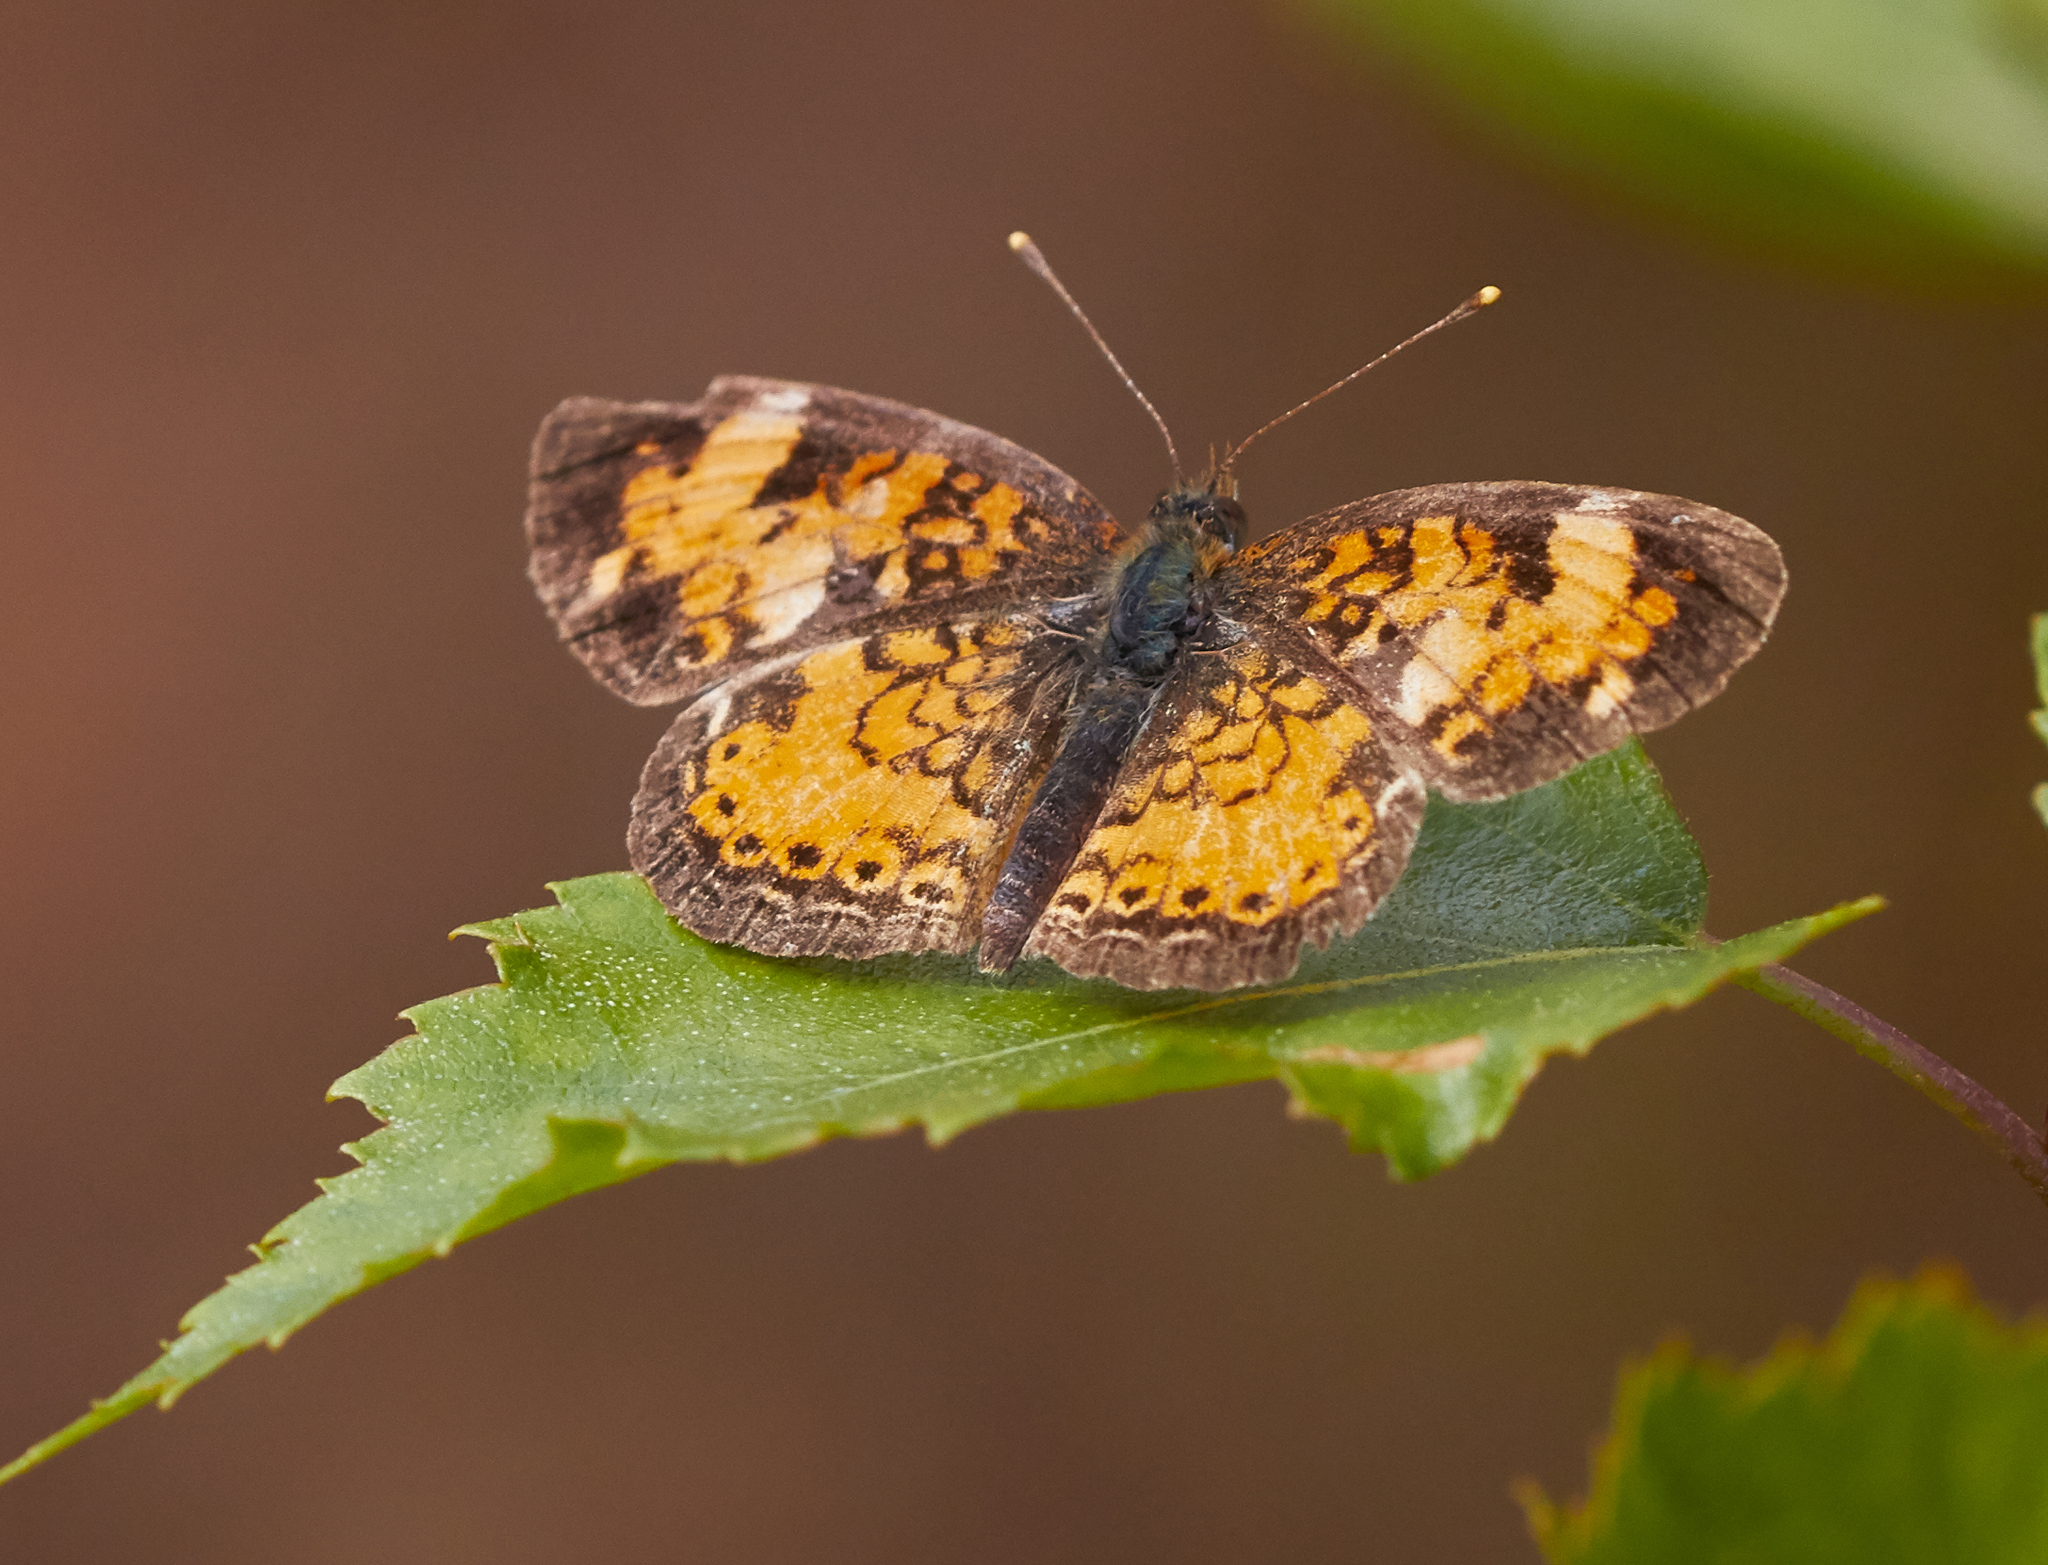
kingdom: Animalia
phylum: Arthropoda
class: Insecta
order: Lepidoptera
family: Nymphalidae
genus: Phyciodes
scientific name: Phyciodes tharos
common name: Pearl crescent
